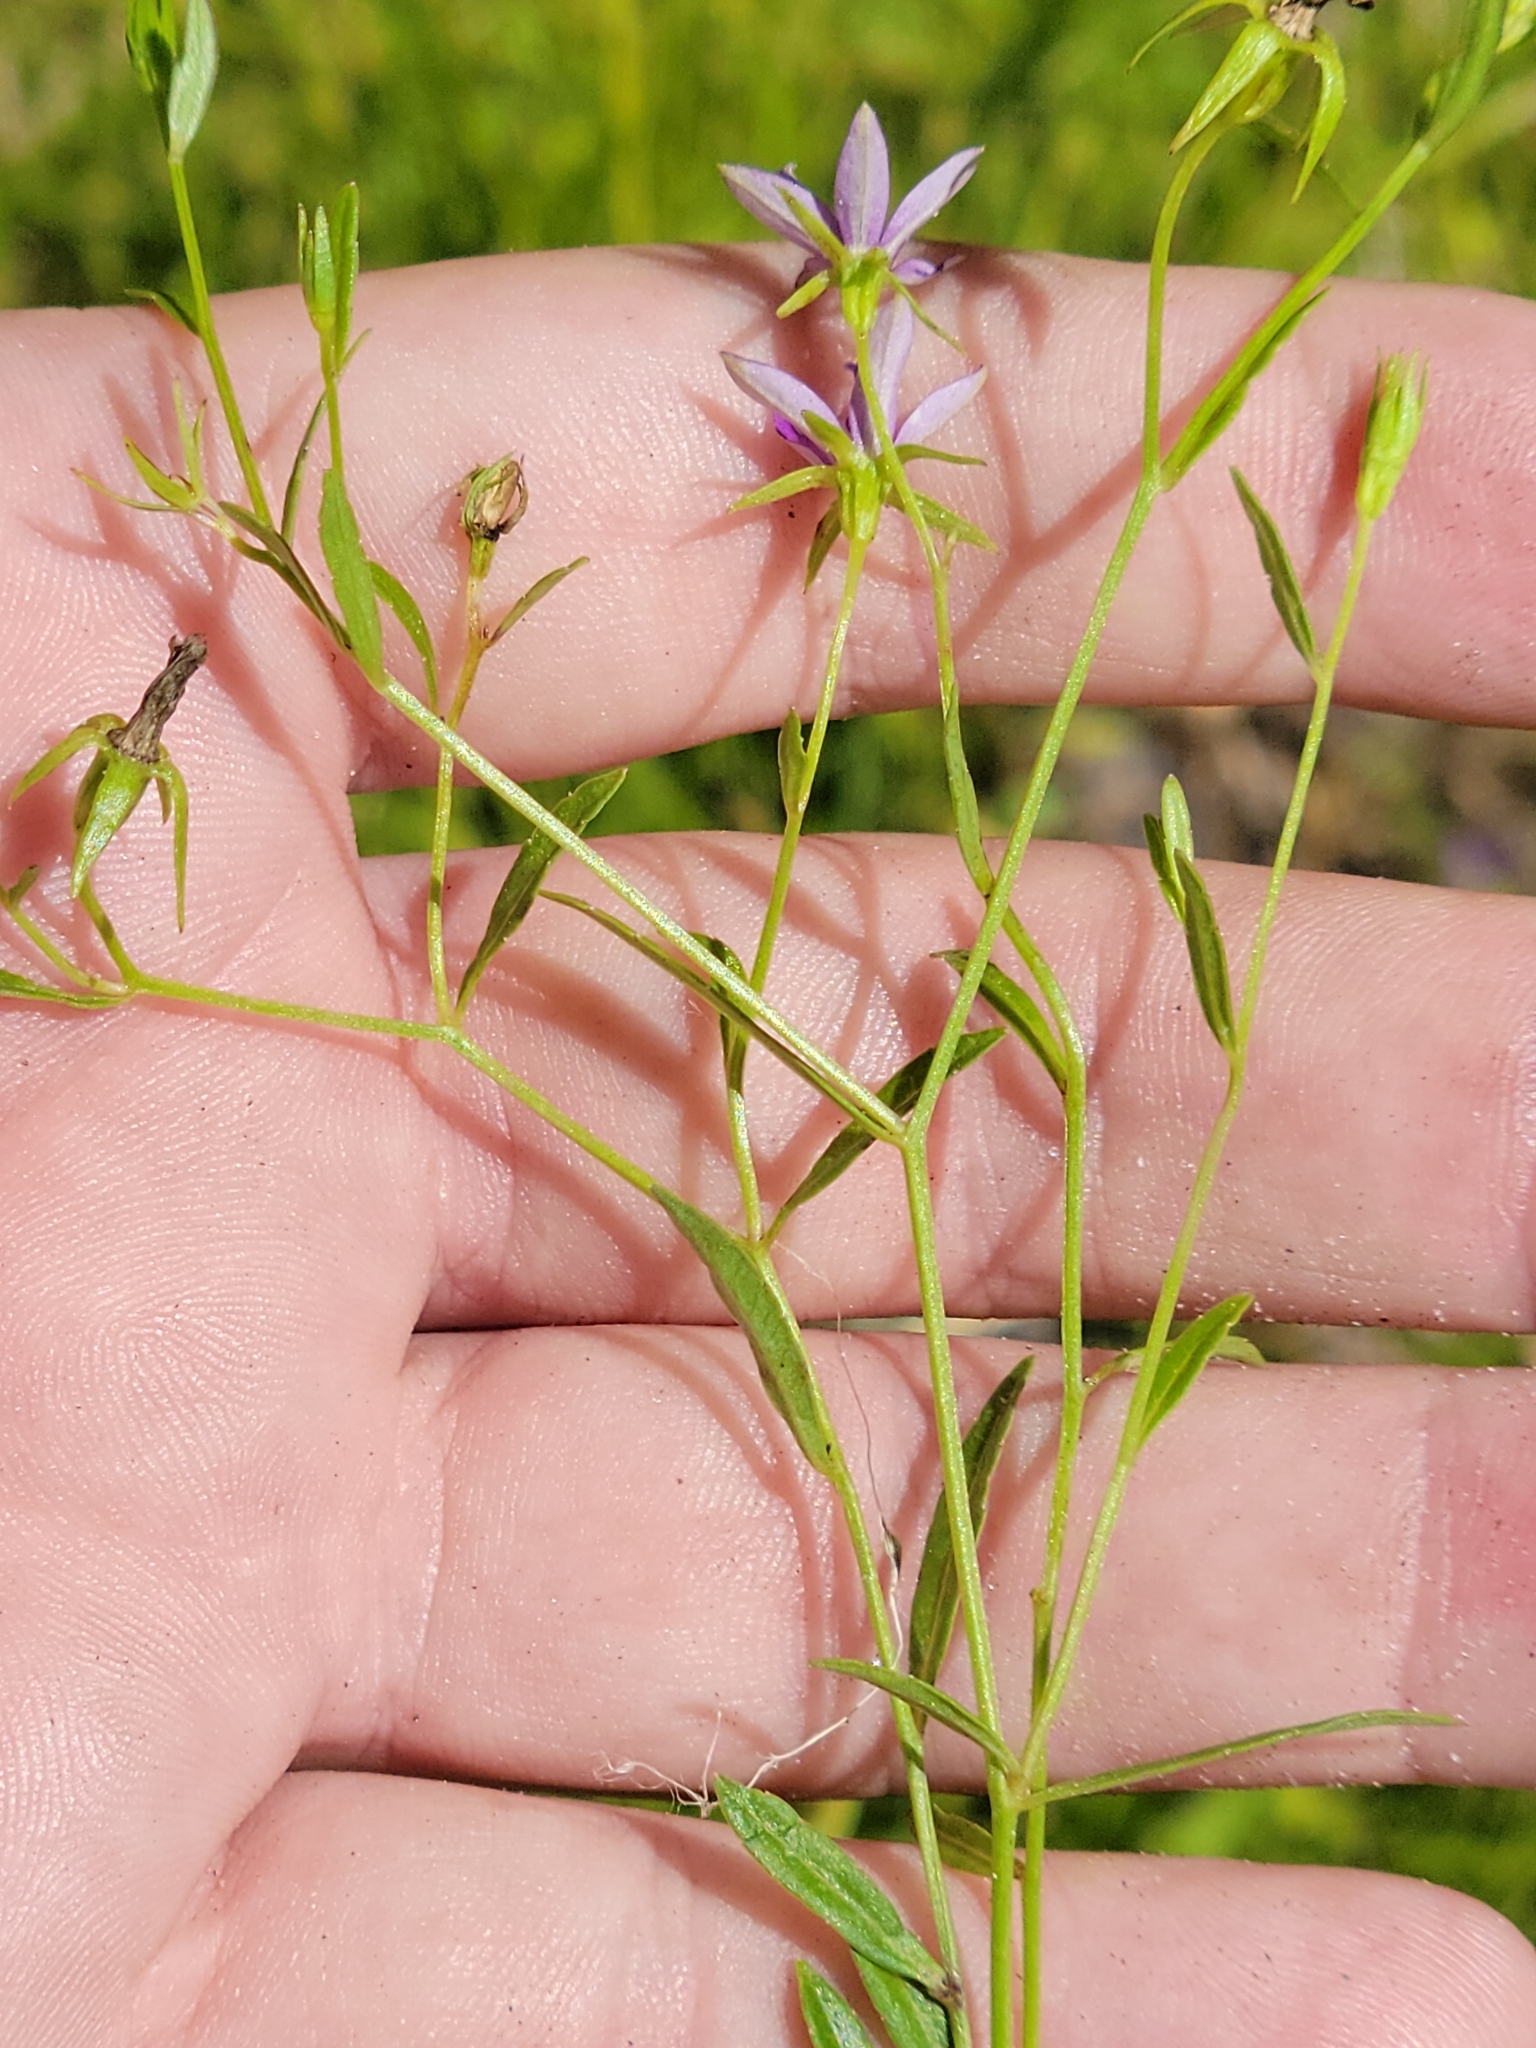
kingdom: Plantae
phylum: Tracheophyta
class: Magnoliopsida
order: Asterales
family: Campanulaceae
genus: Rotanthella
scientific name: Rotanthella floridana
